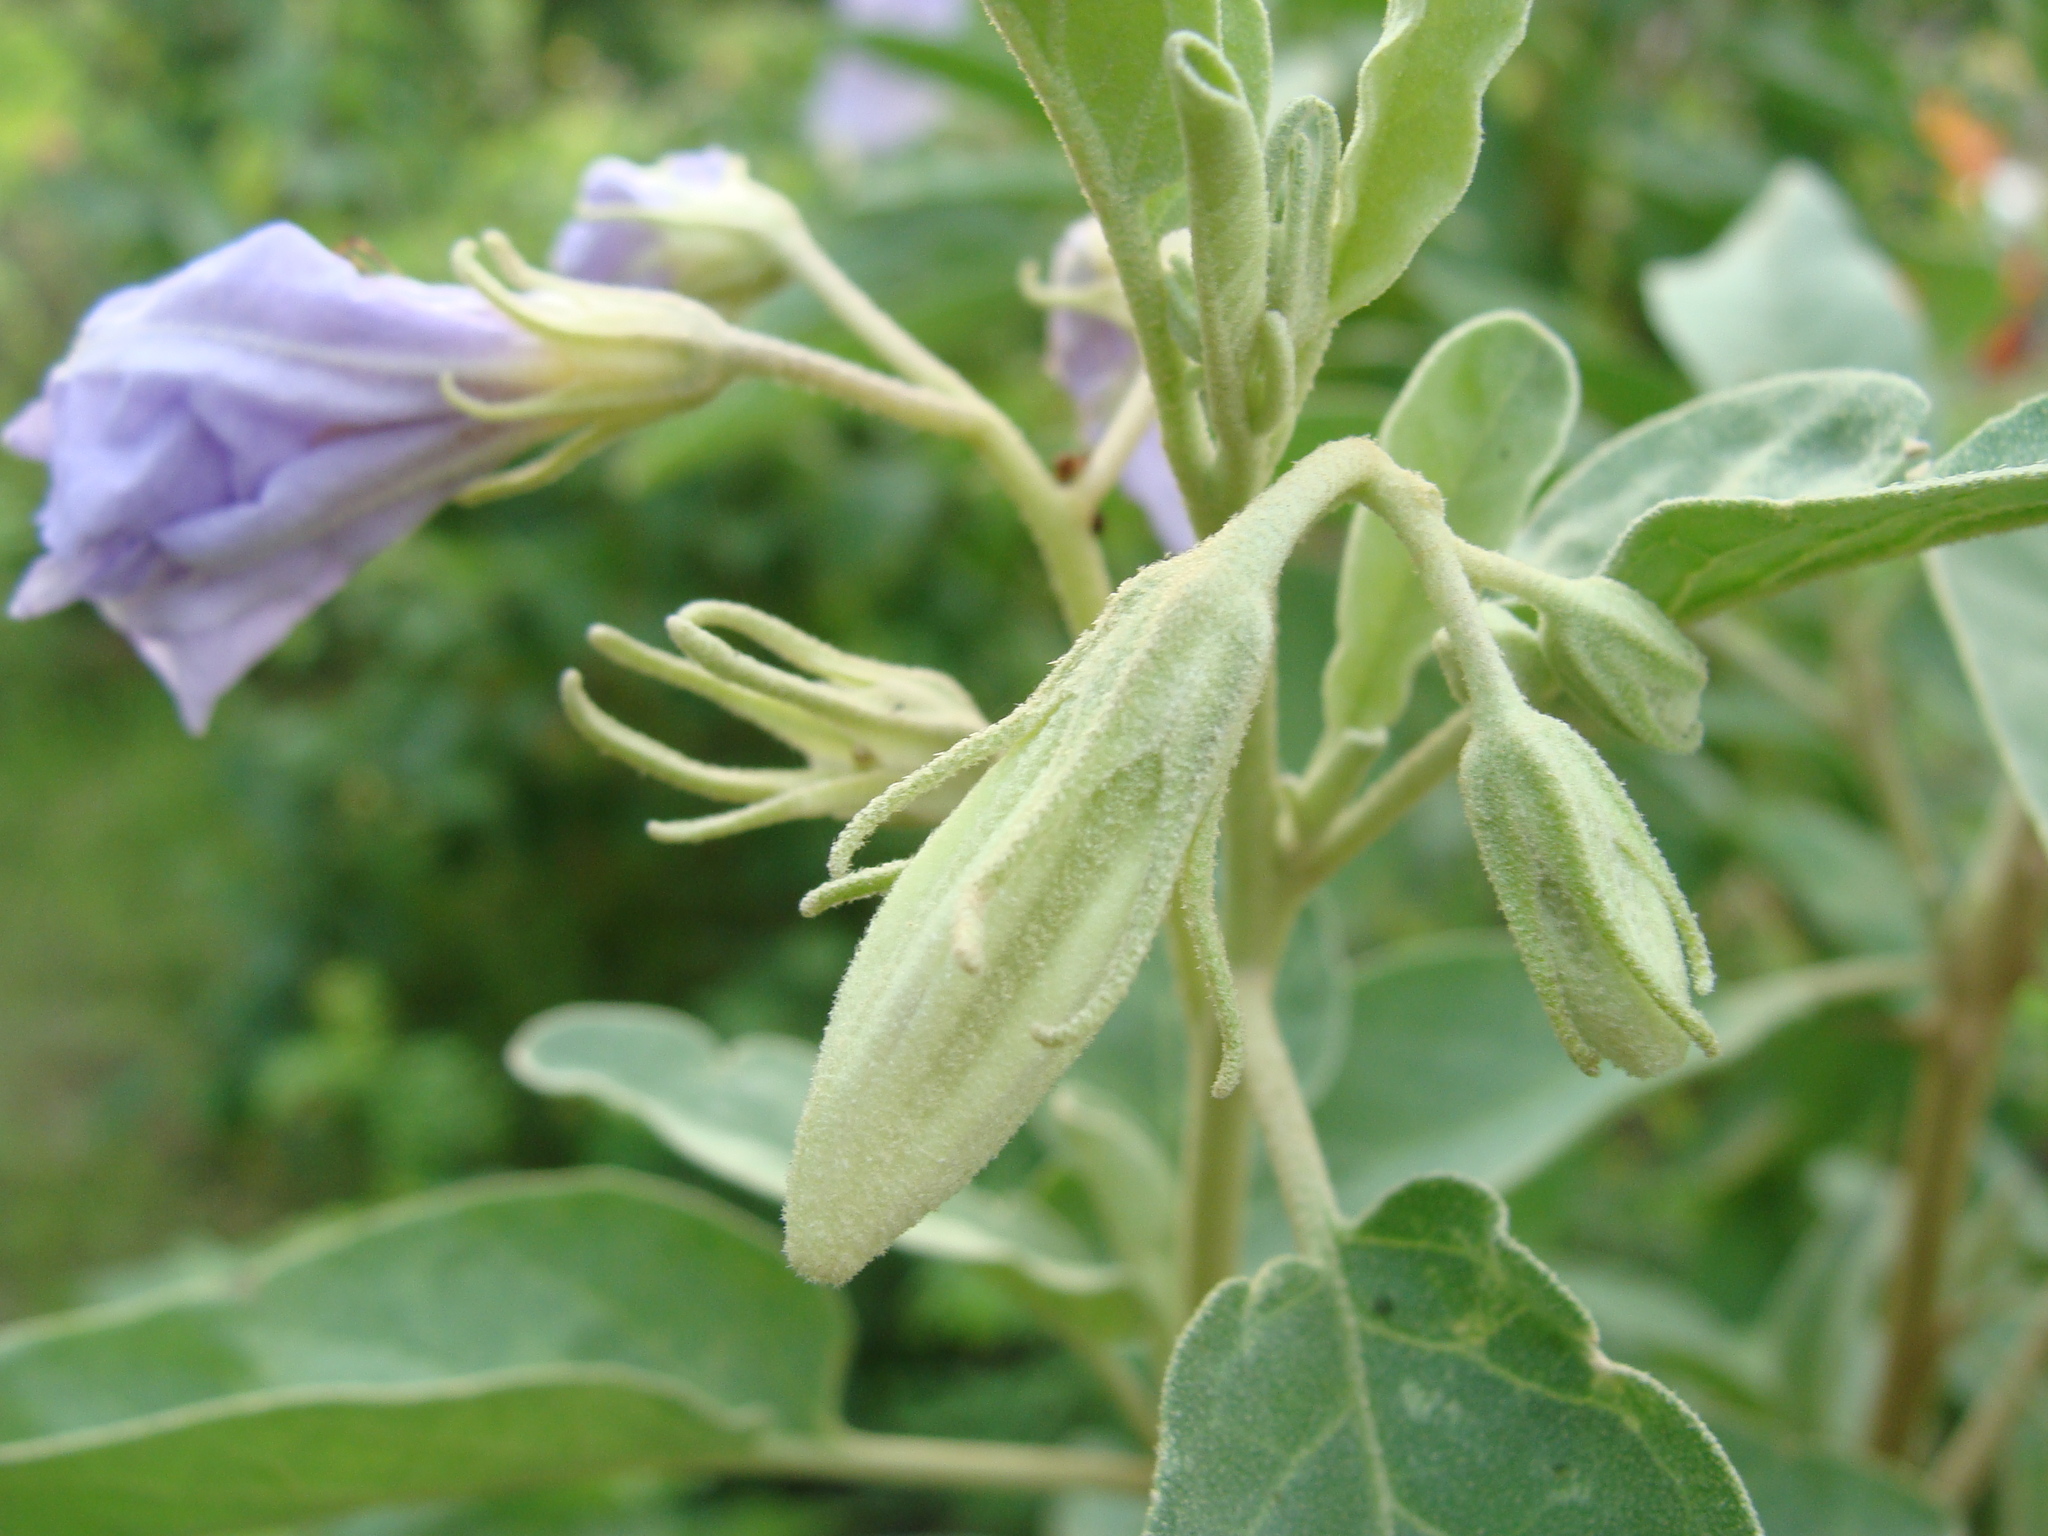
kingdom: Plantae
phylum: Tracheophyta
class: Magnoliopsida
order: Solanales
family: Solanaceae
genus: Solanum
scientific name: Solanum hindsianum
